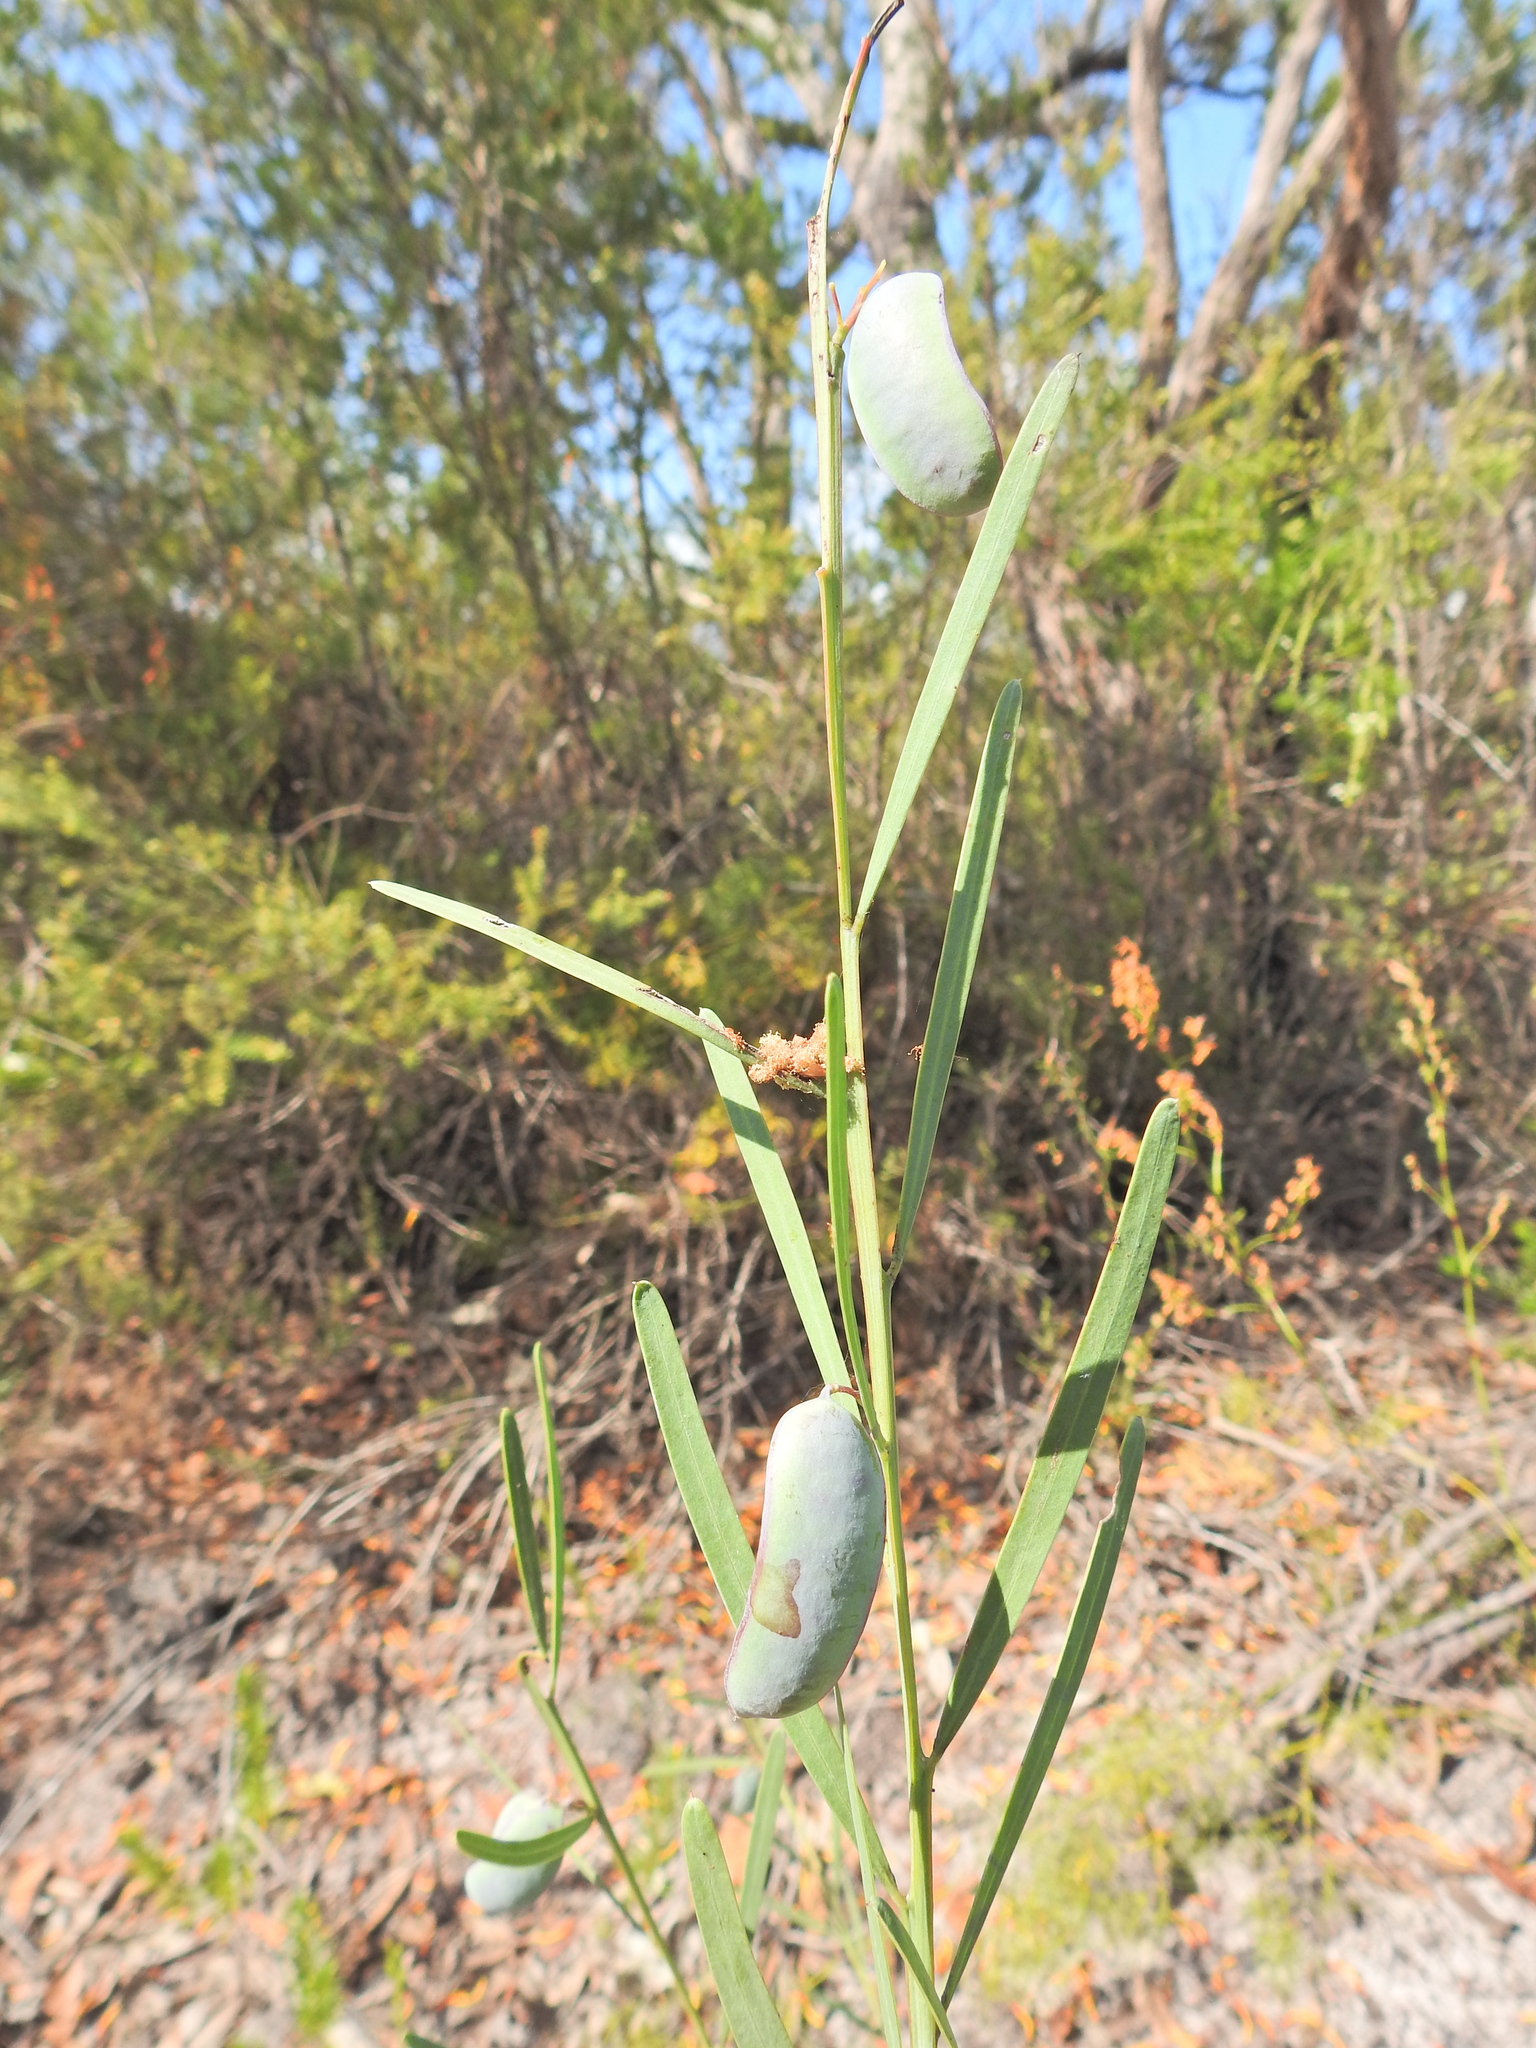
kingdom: Plantae
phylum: Tracheophyta
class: Magnoliopsida
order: Fabales
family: Fabaceae
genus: Acacia
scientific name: Acacia suaveolens
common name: Sweet acacia
